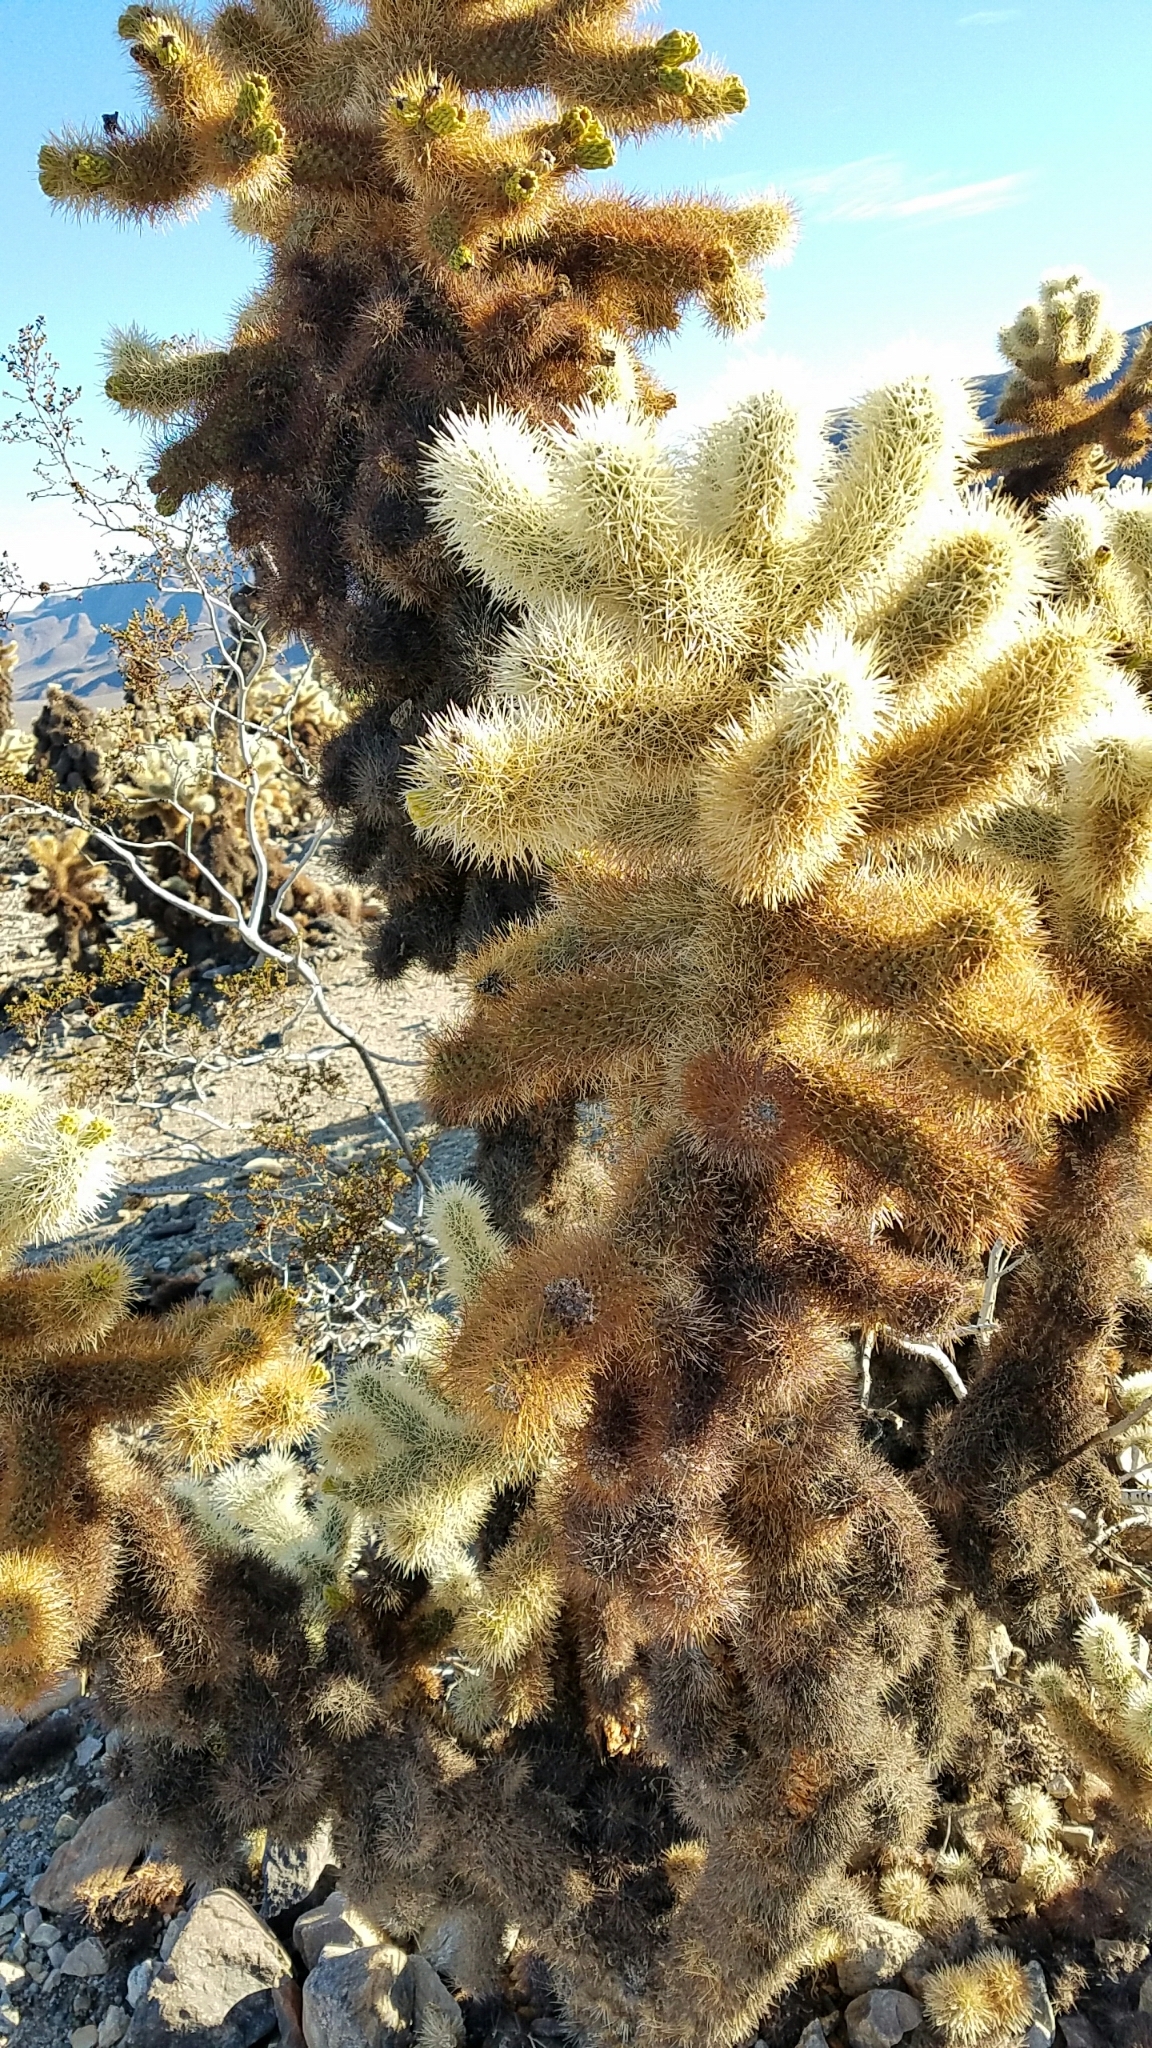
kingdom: Plantae
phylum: Tracheophyta
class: Magnoliopsida
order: Caryophyllales
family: Cactaceae
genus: Cylindropuntia
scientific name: Cylindropuntia fosbergii
